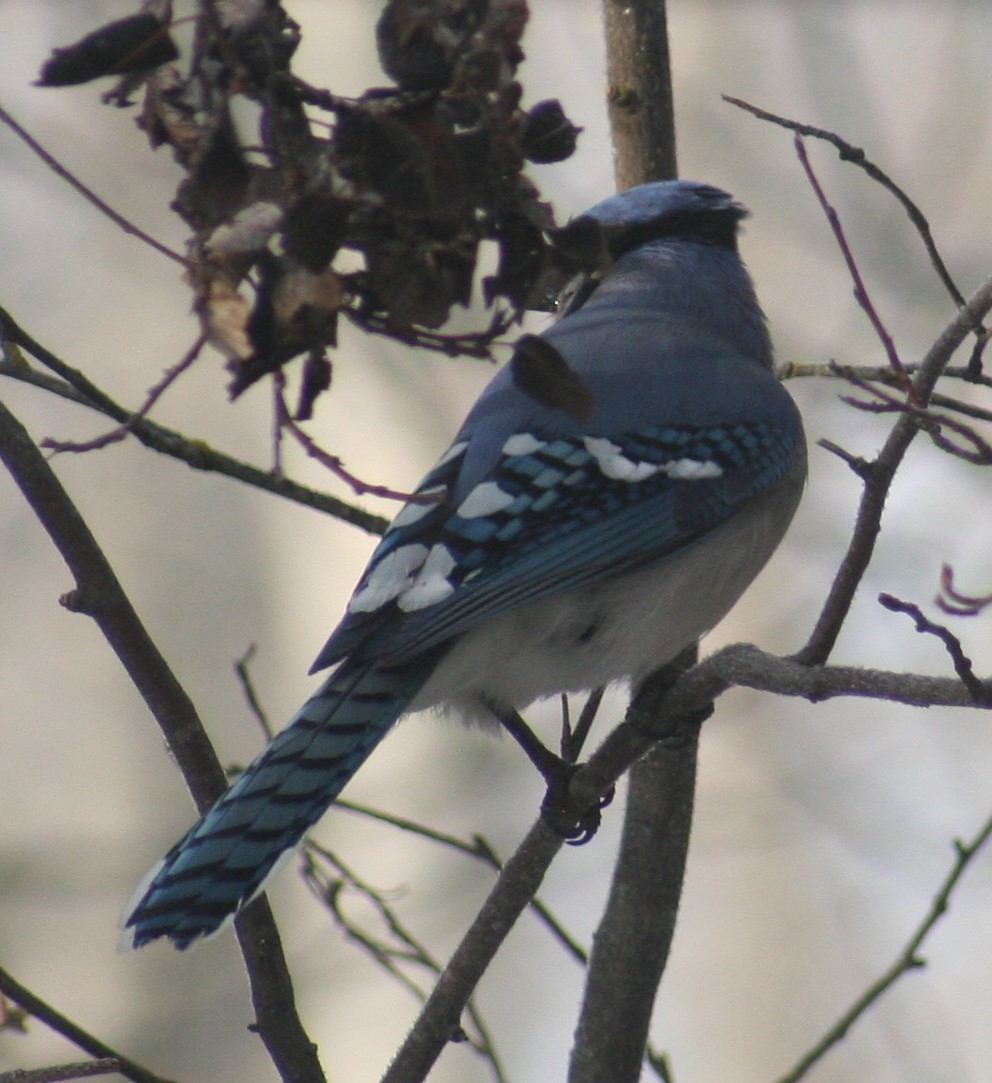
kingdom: Animalia
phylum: Chordata
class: Aves
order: Passeriformes
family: Corvidae
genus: Cyanocitta
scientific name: Cyanocitta cristata
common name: Blue jay
